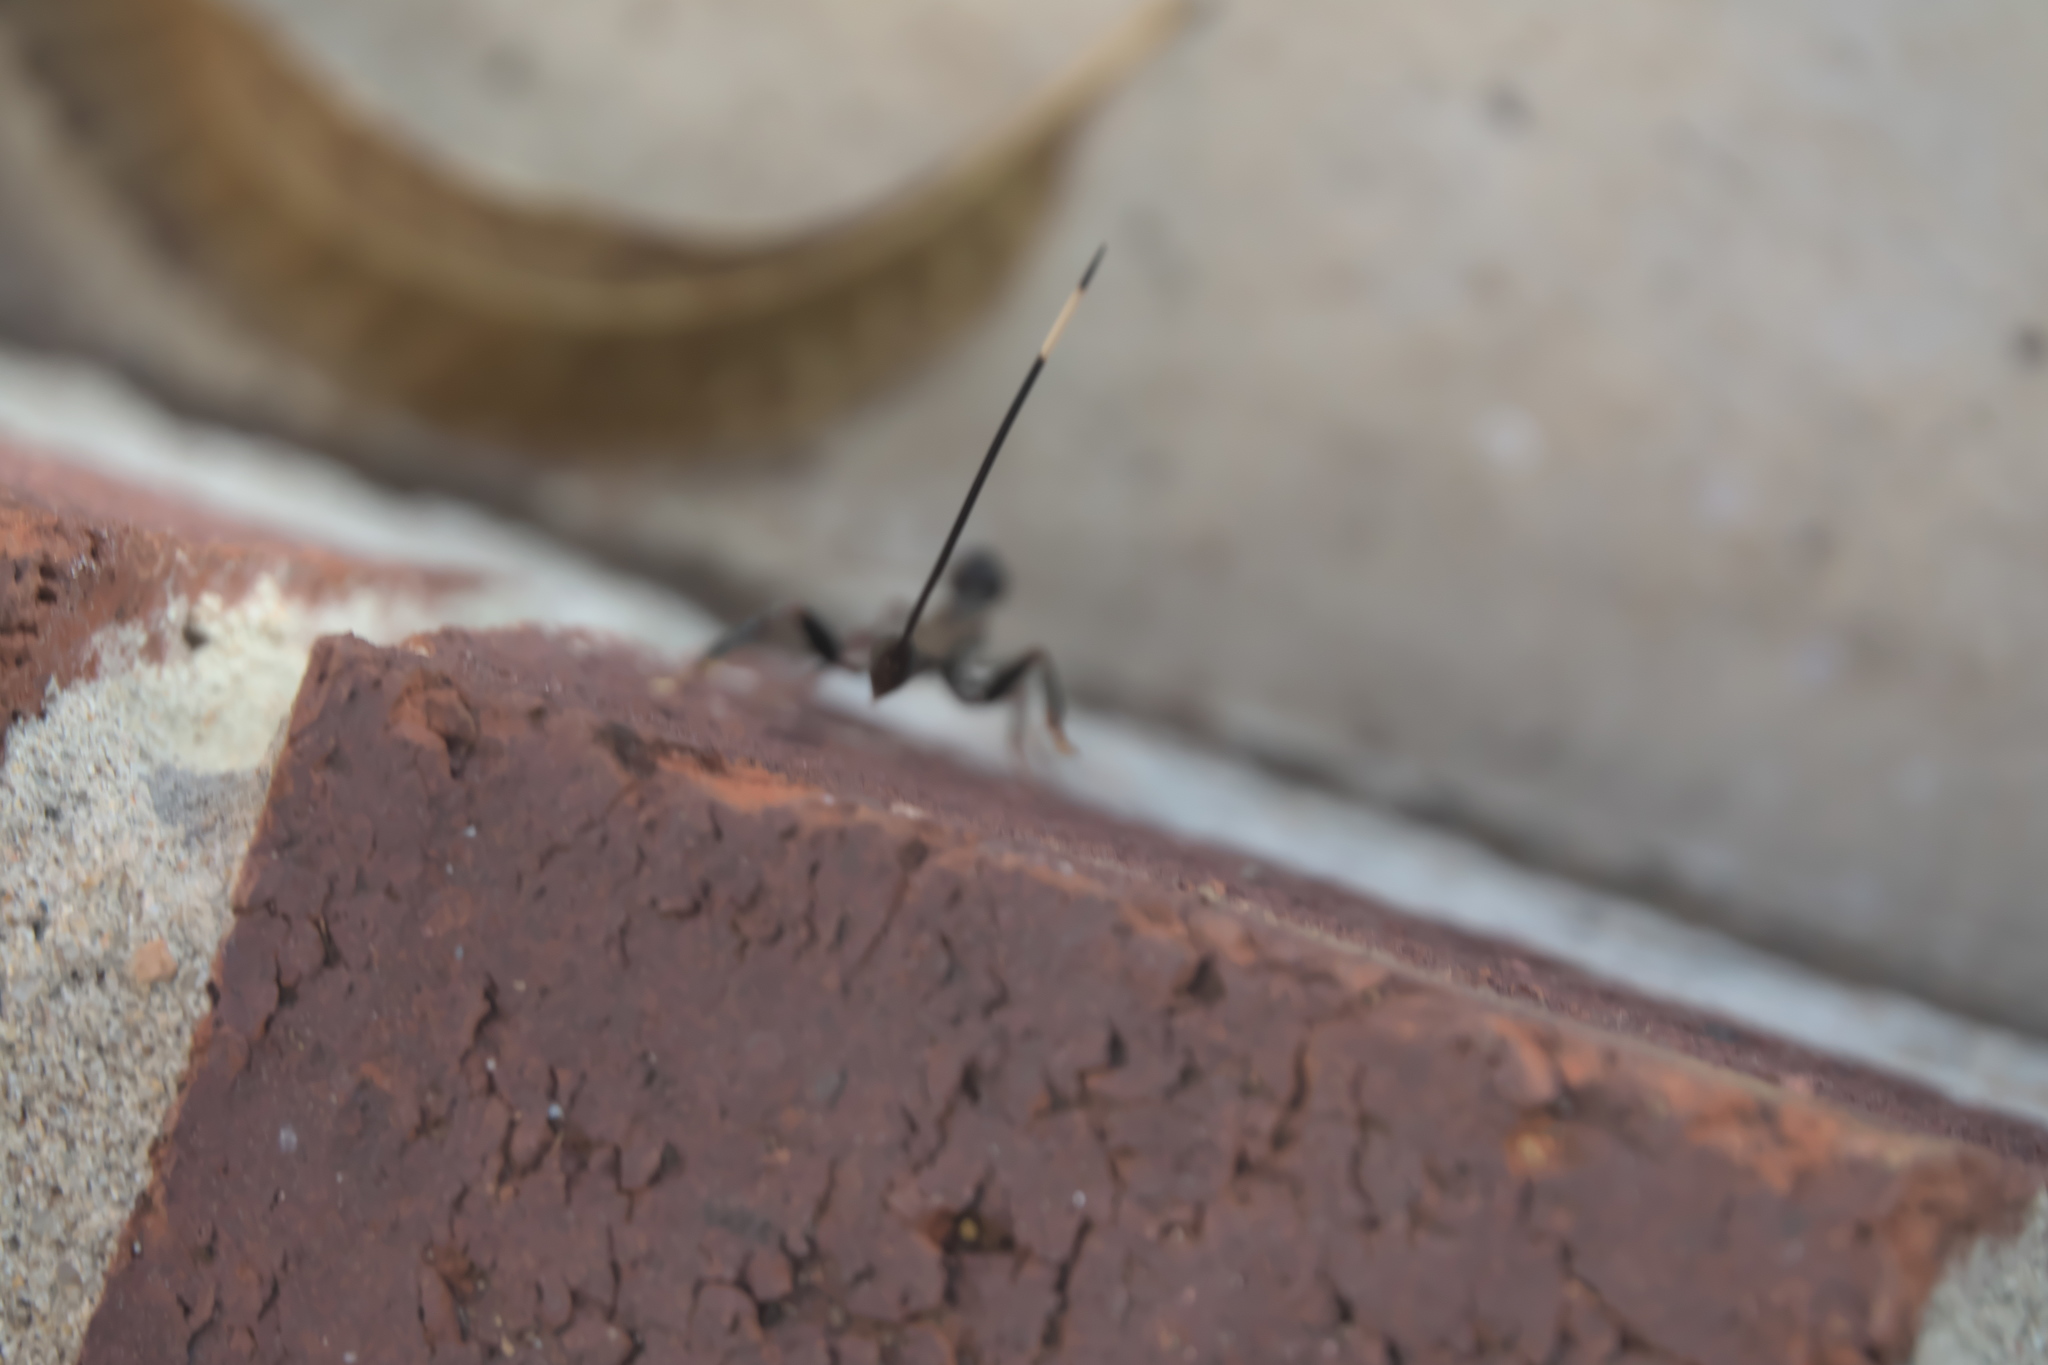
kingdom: Animalia
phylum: Arthropoda
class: Insecta
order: Hymenoptera
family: Stephanidae
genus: Megischus
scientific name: Megischus
